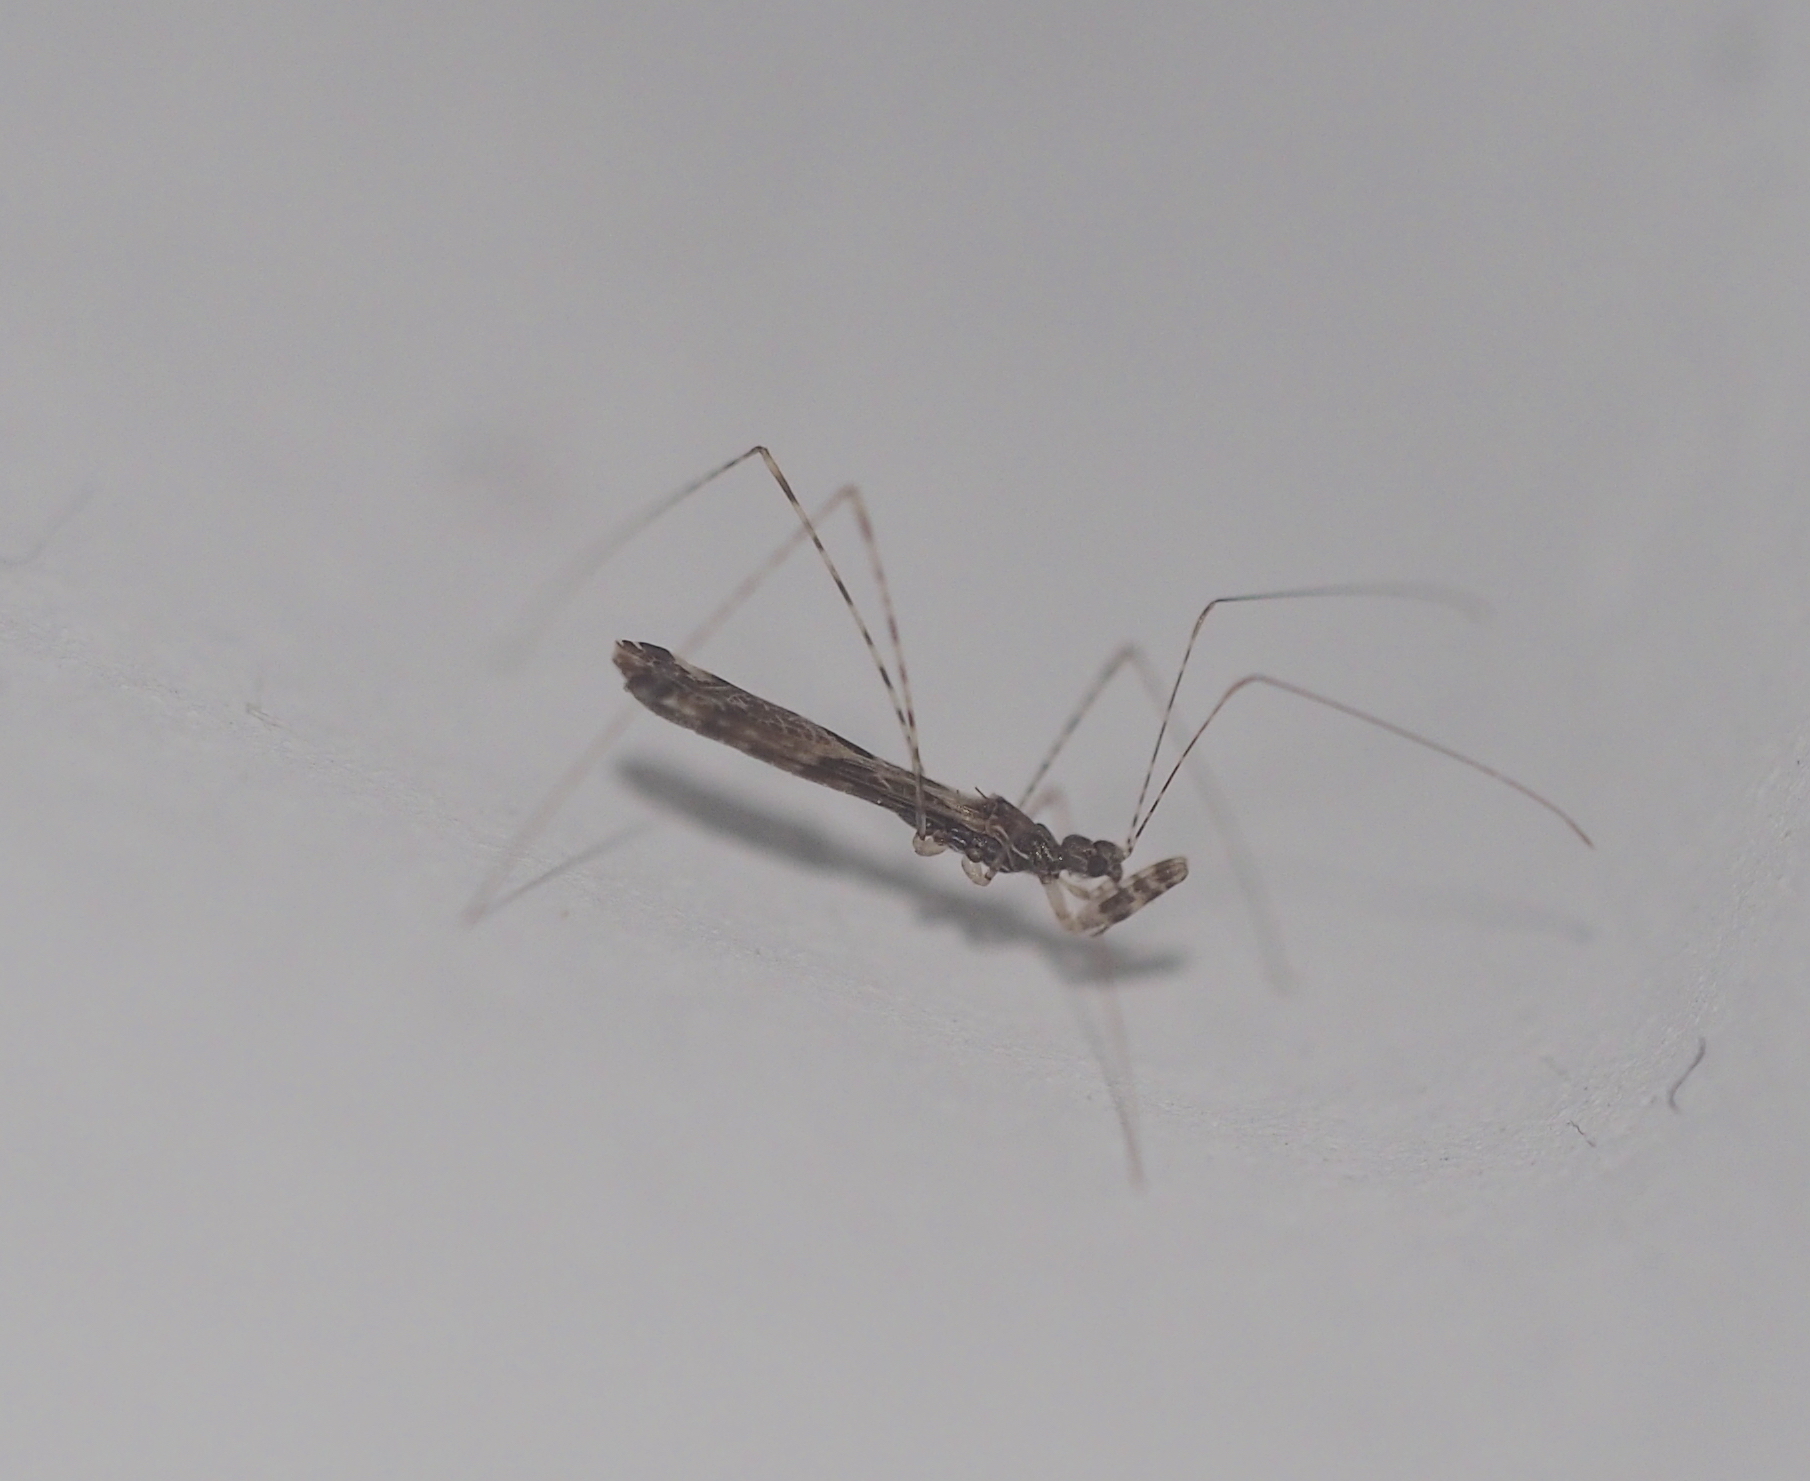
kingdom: Animalia
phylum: Arthropoda
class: Insecta
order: Hemiptera
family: Reduviidae
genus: Empicoris
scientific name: Empicoris culiciformis
